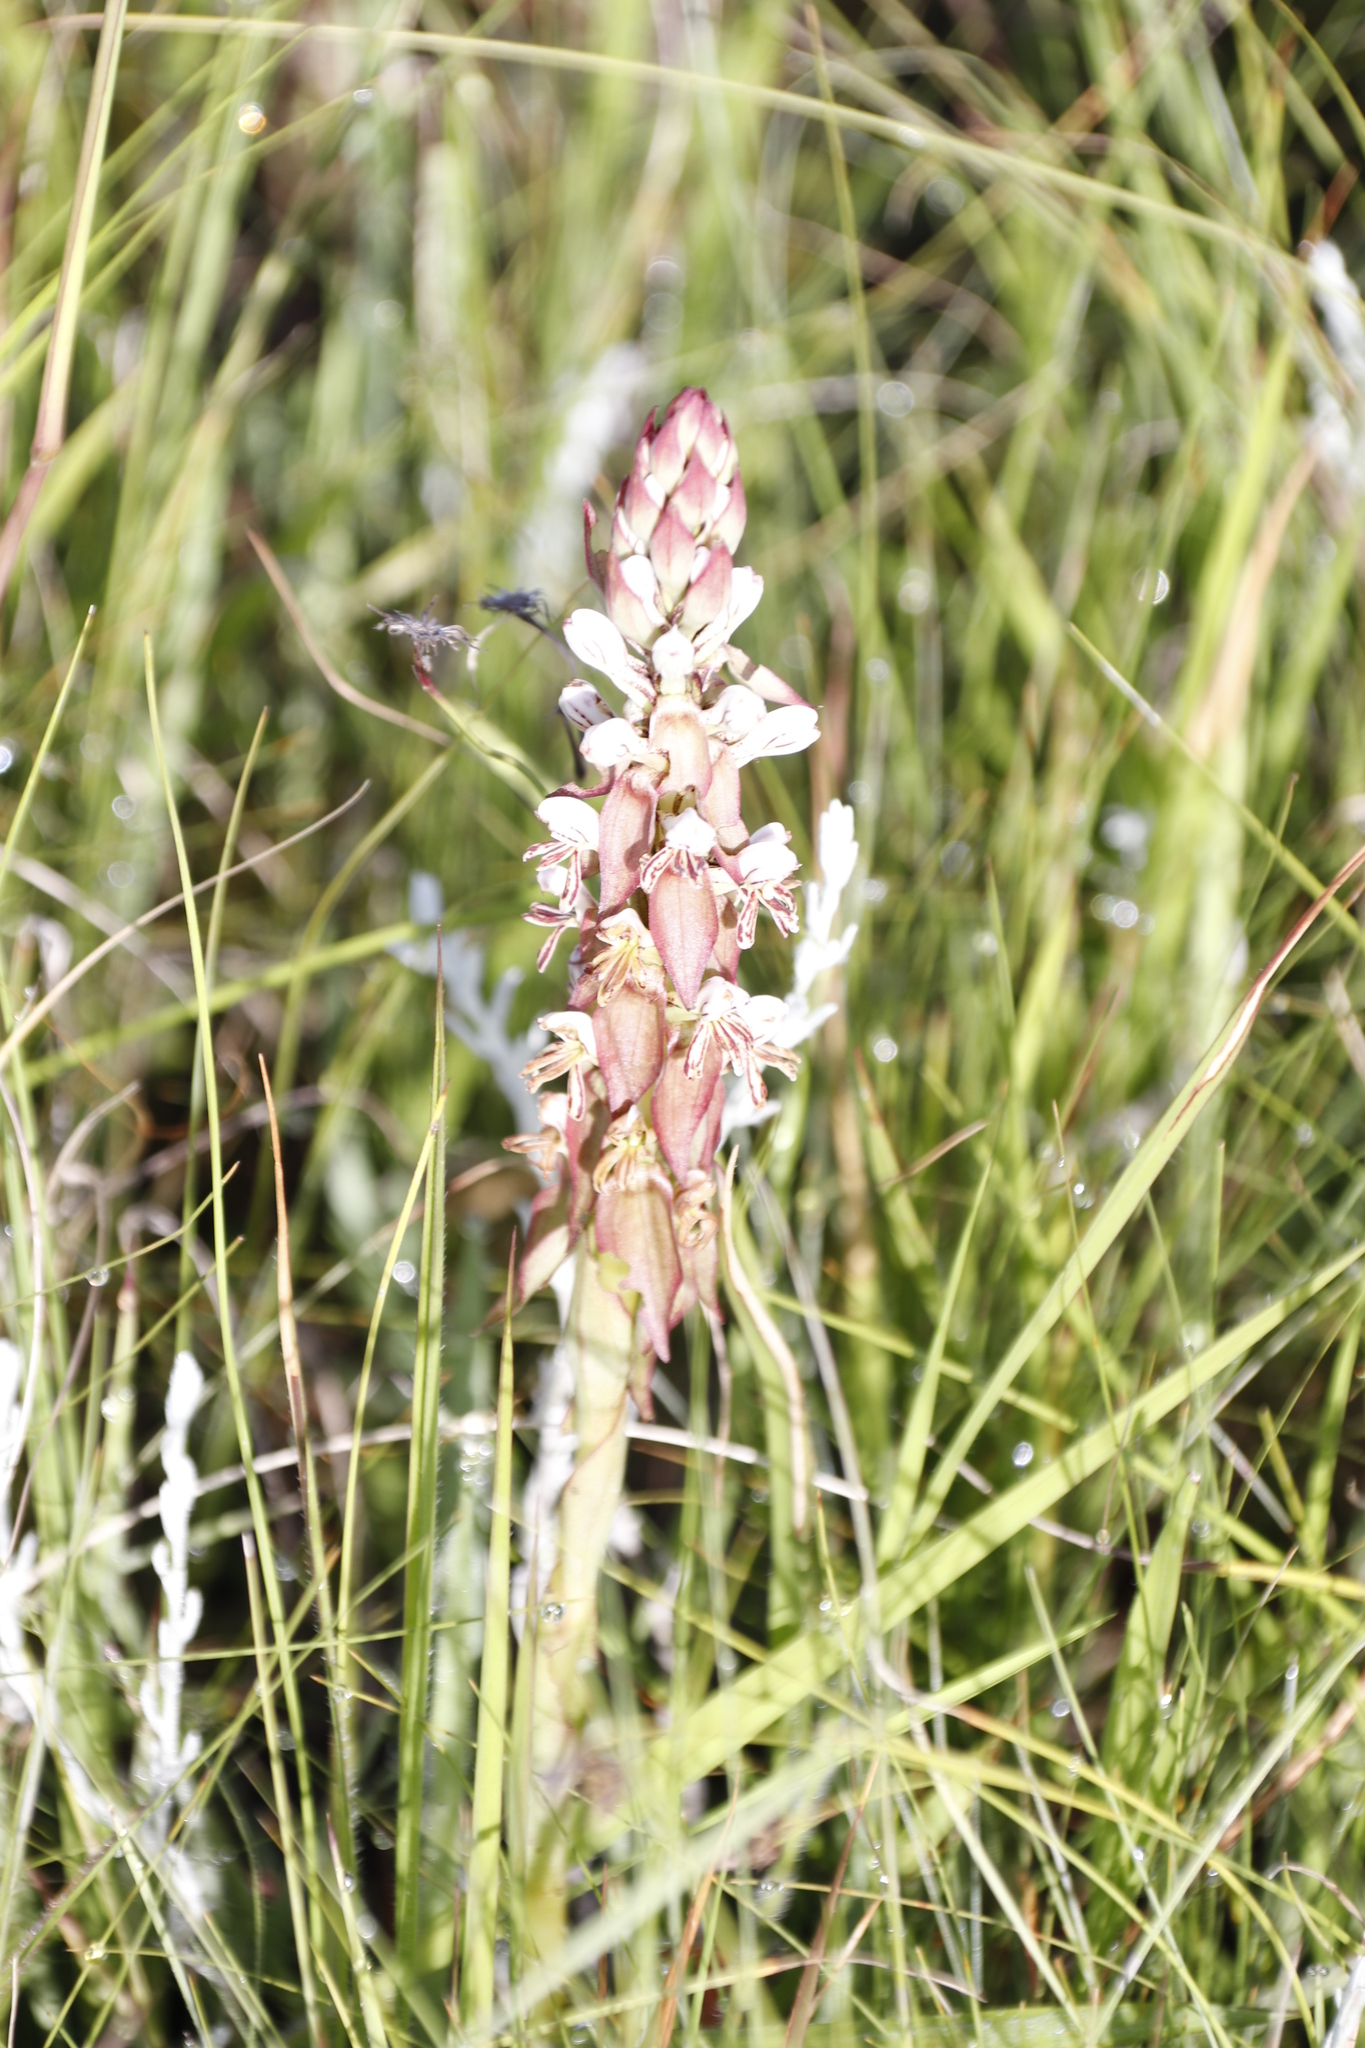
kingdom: Plantae
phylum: Tracheophyta
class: Liliopsida
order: Asparagales
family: Orchidaceae
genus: Satyrium
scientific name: Satyrium cristatum
